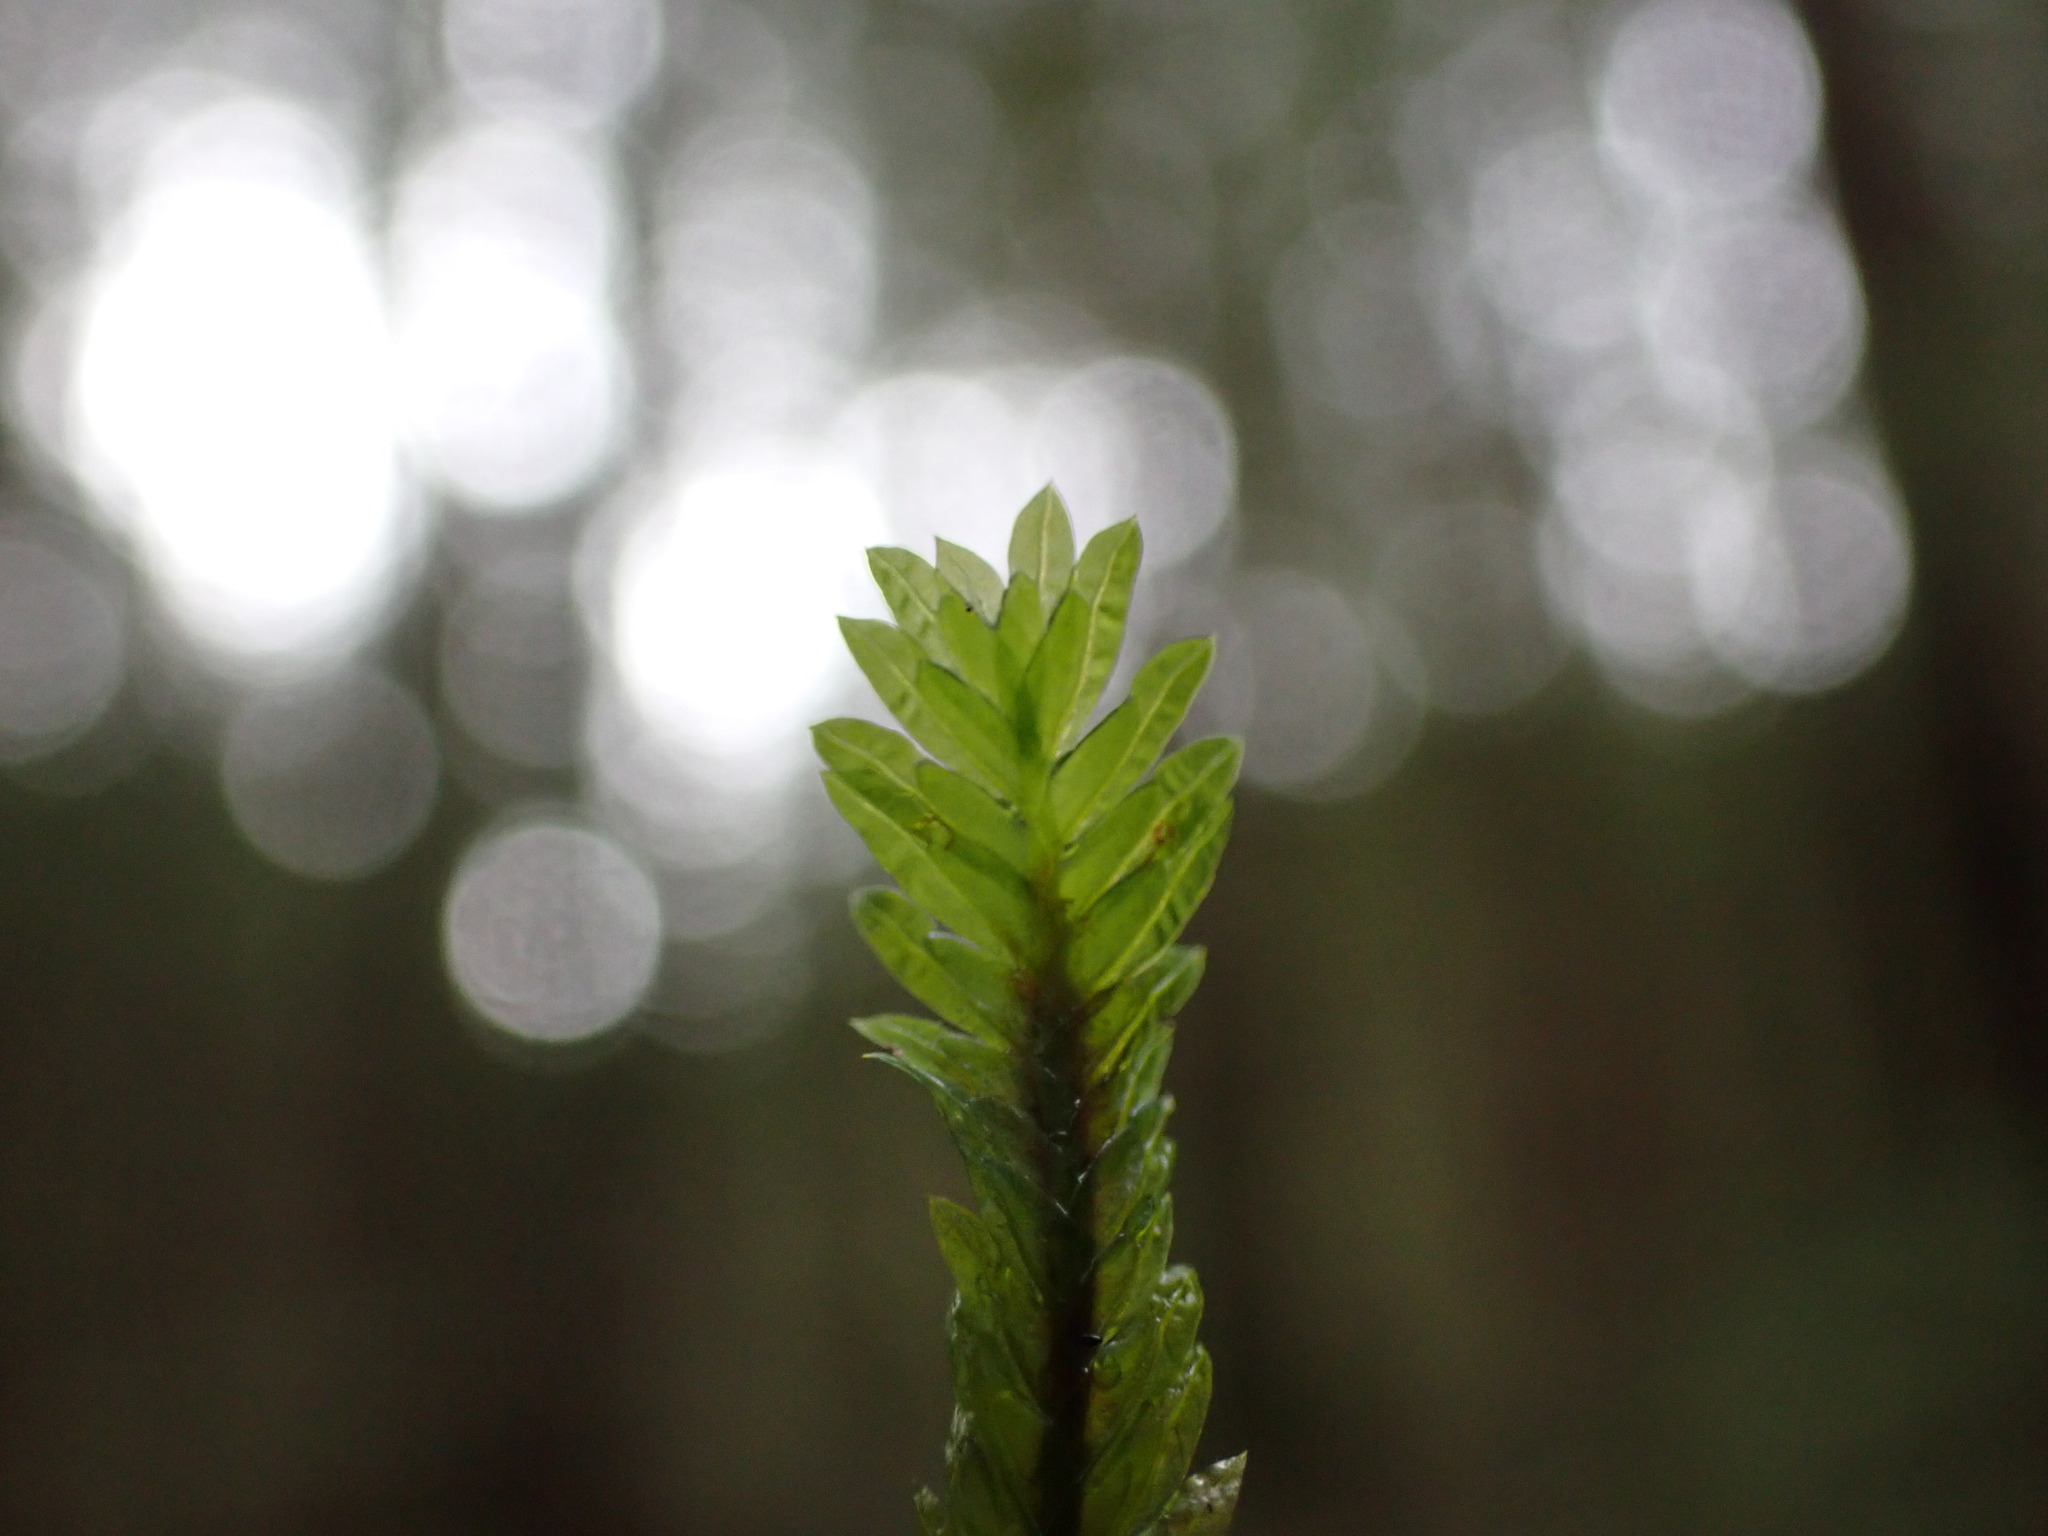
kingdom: Plantae
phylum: Bryophyta
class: Bryopsida
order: Dicranales
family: Fissidentaceae
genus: Fissidens
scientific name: Fissidens adianthoides
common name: Maidenhair pocket moss
